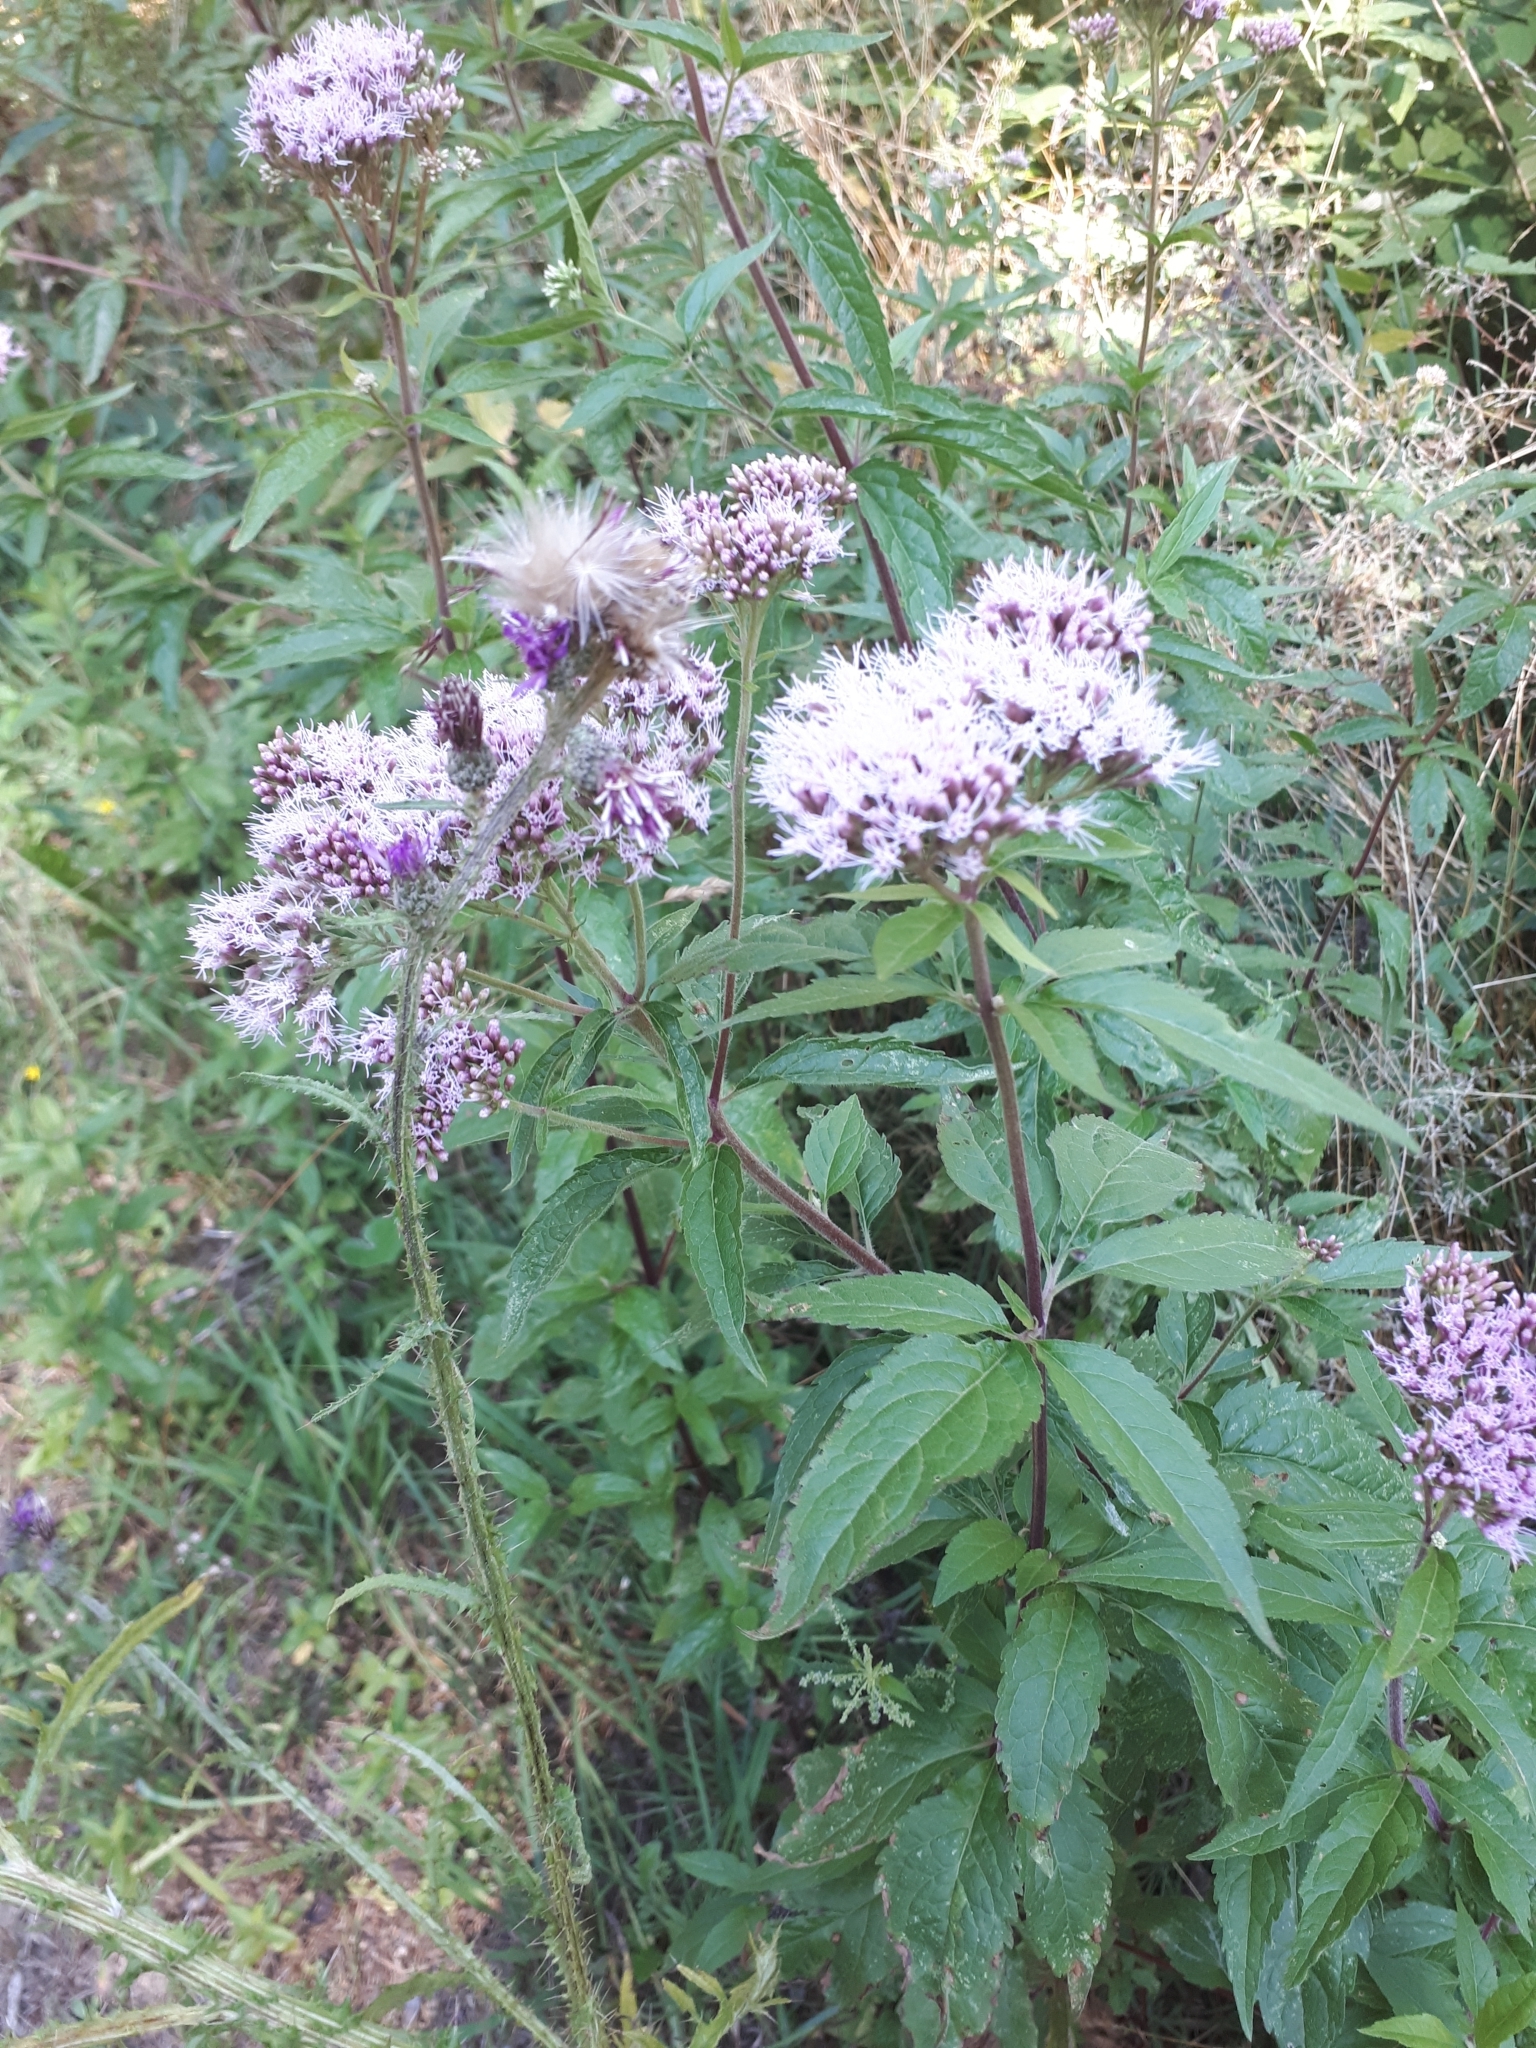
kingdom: Plantae
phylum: Tracheophyta
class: Magnoliopsida
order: Asterales
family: Asteraceae
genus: Eupatorium
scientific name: Eupatorium cannabinum
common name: Hemp-agrimony
